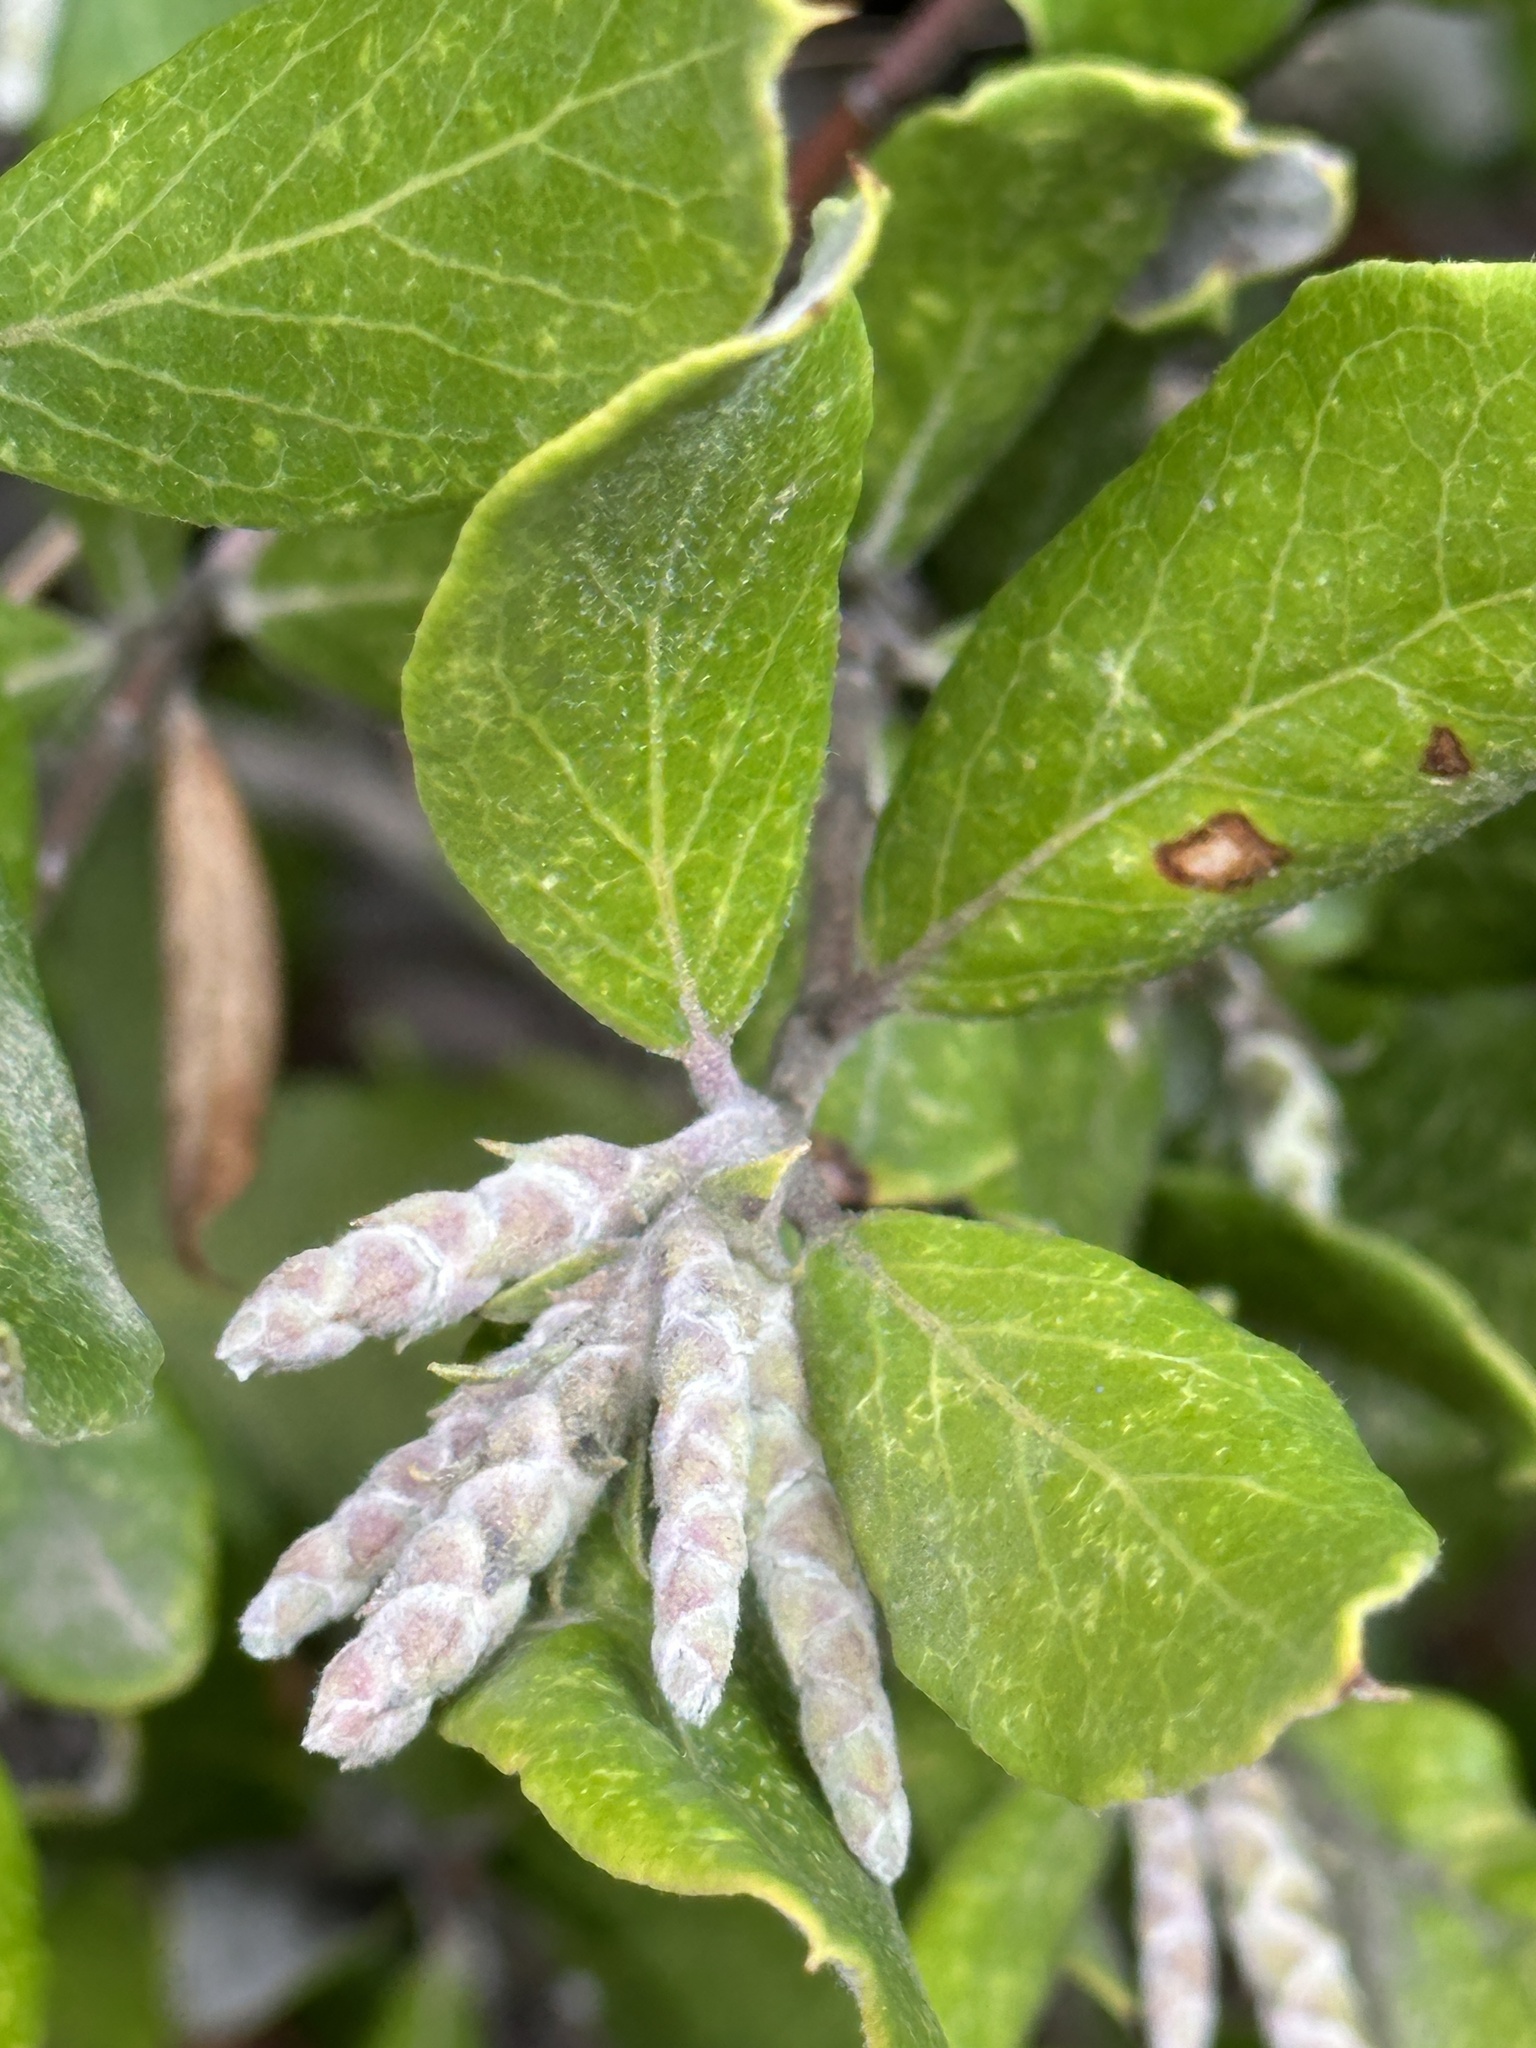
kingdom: Plantae
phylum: Tracheophyta
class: Magnoliopsida
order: Garryales
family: Garryaceae
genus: Garrya
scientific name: Garrya veatchii
